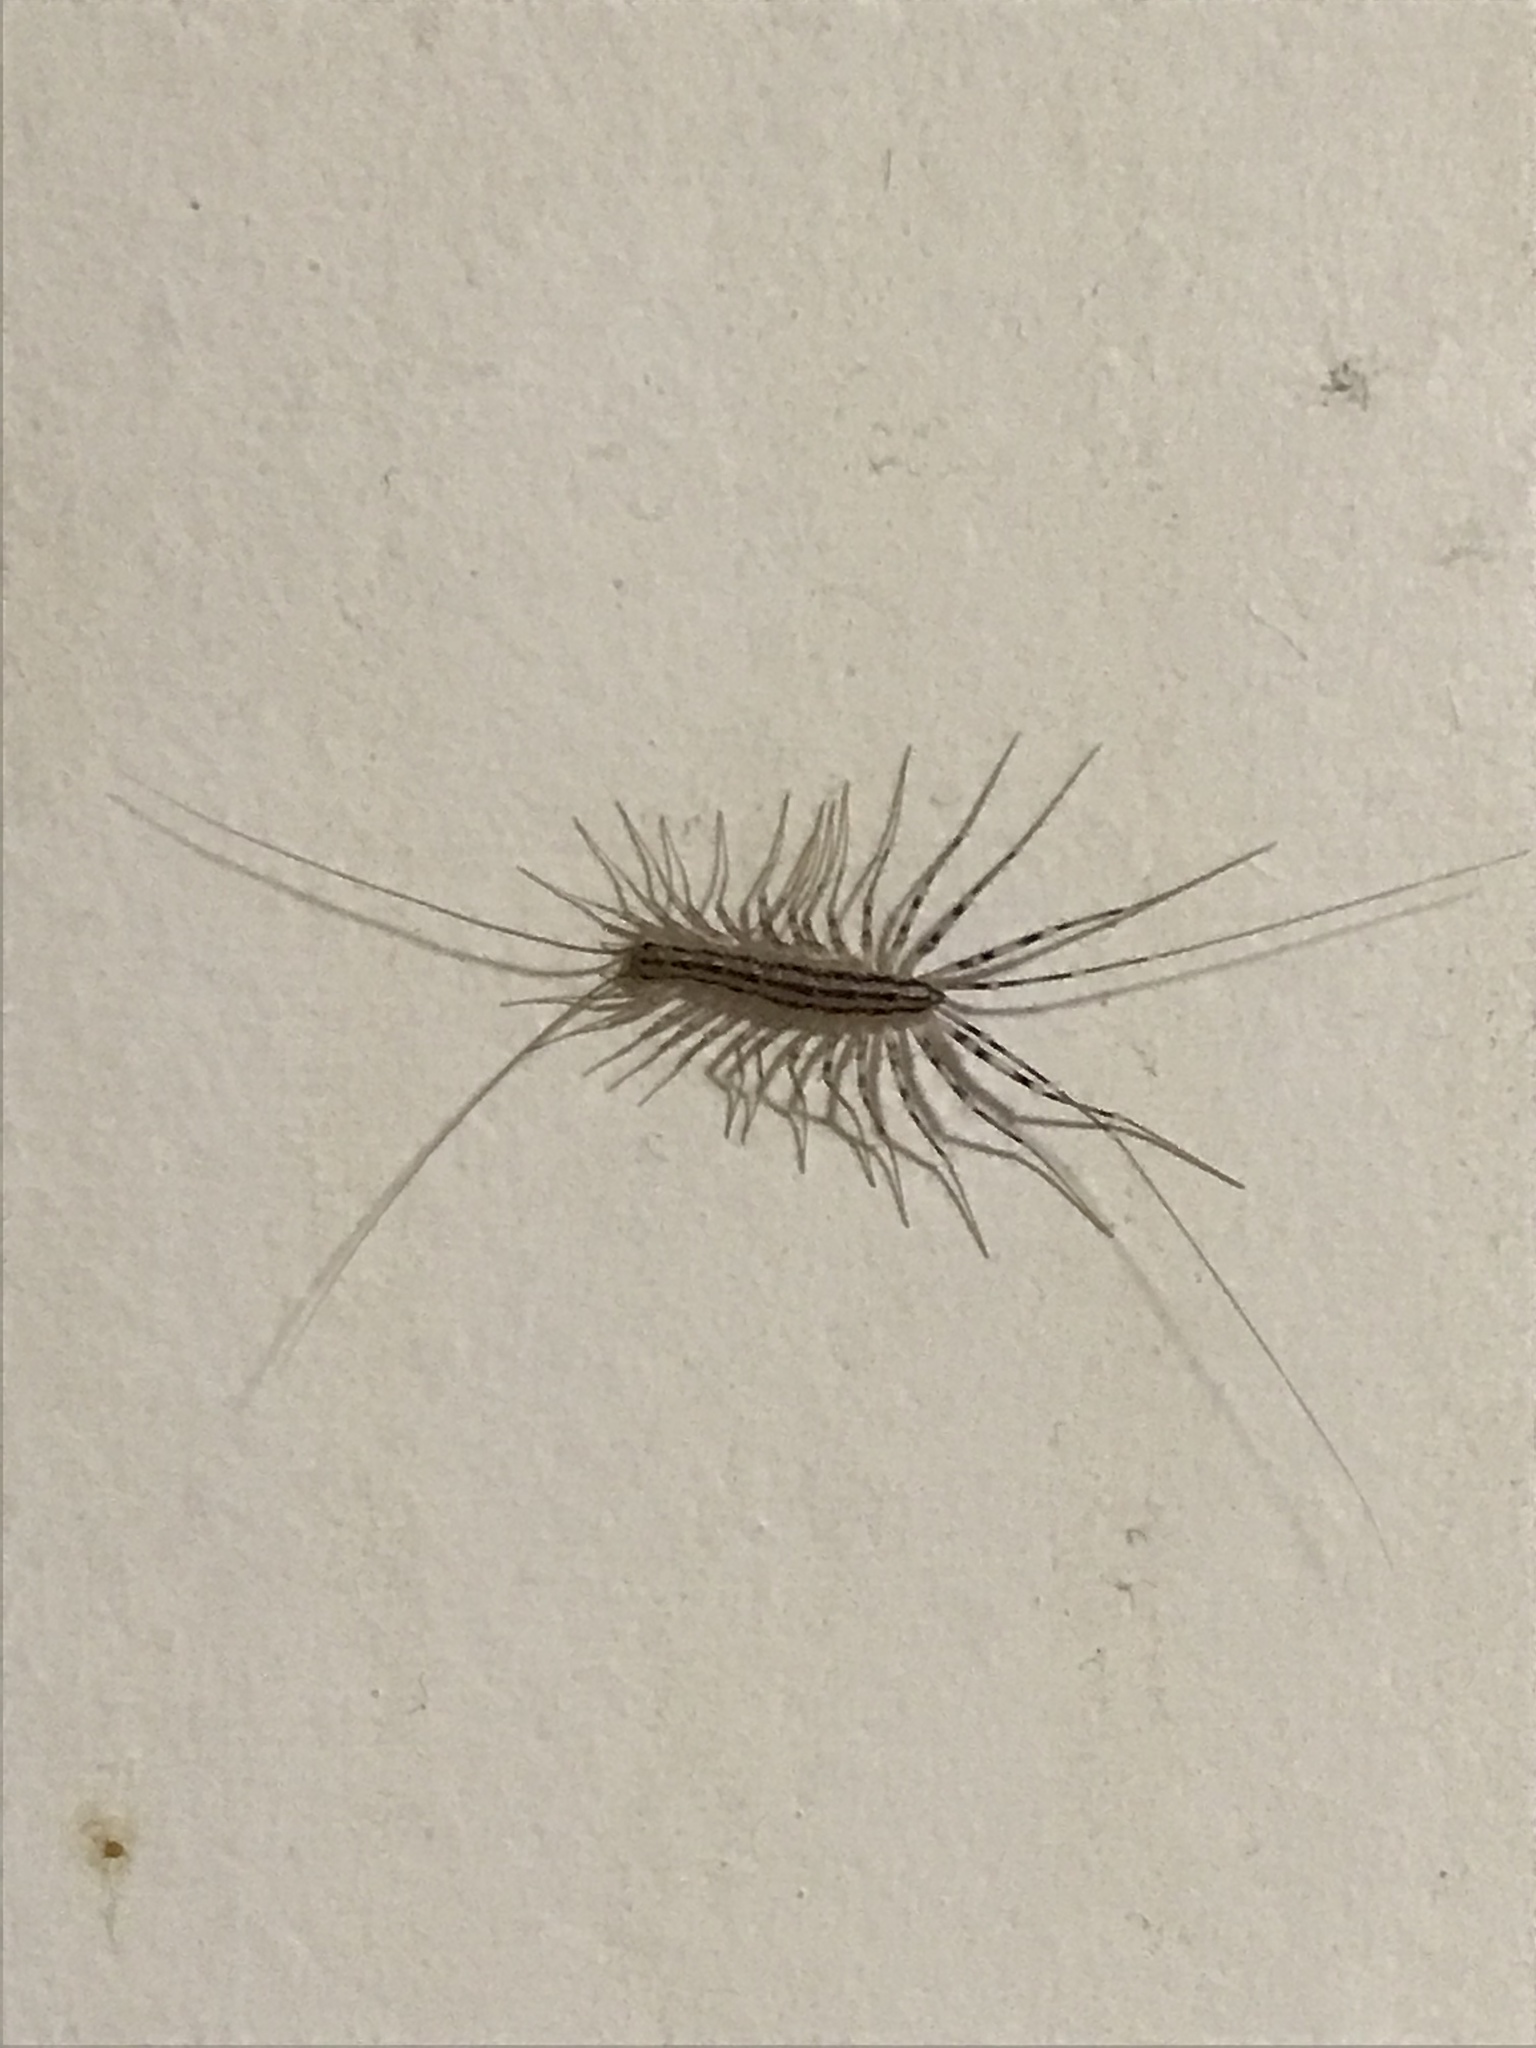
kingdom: Animalia
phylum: Arthropoda
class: Chilopoda
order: Scutigeromorpha
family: Scutigeridae
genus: Scutigera
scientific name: Scutigera coleoptrata
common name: House centipede
